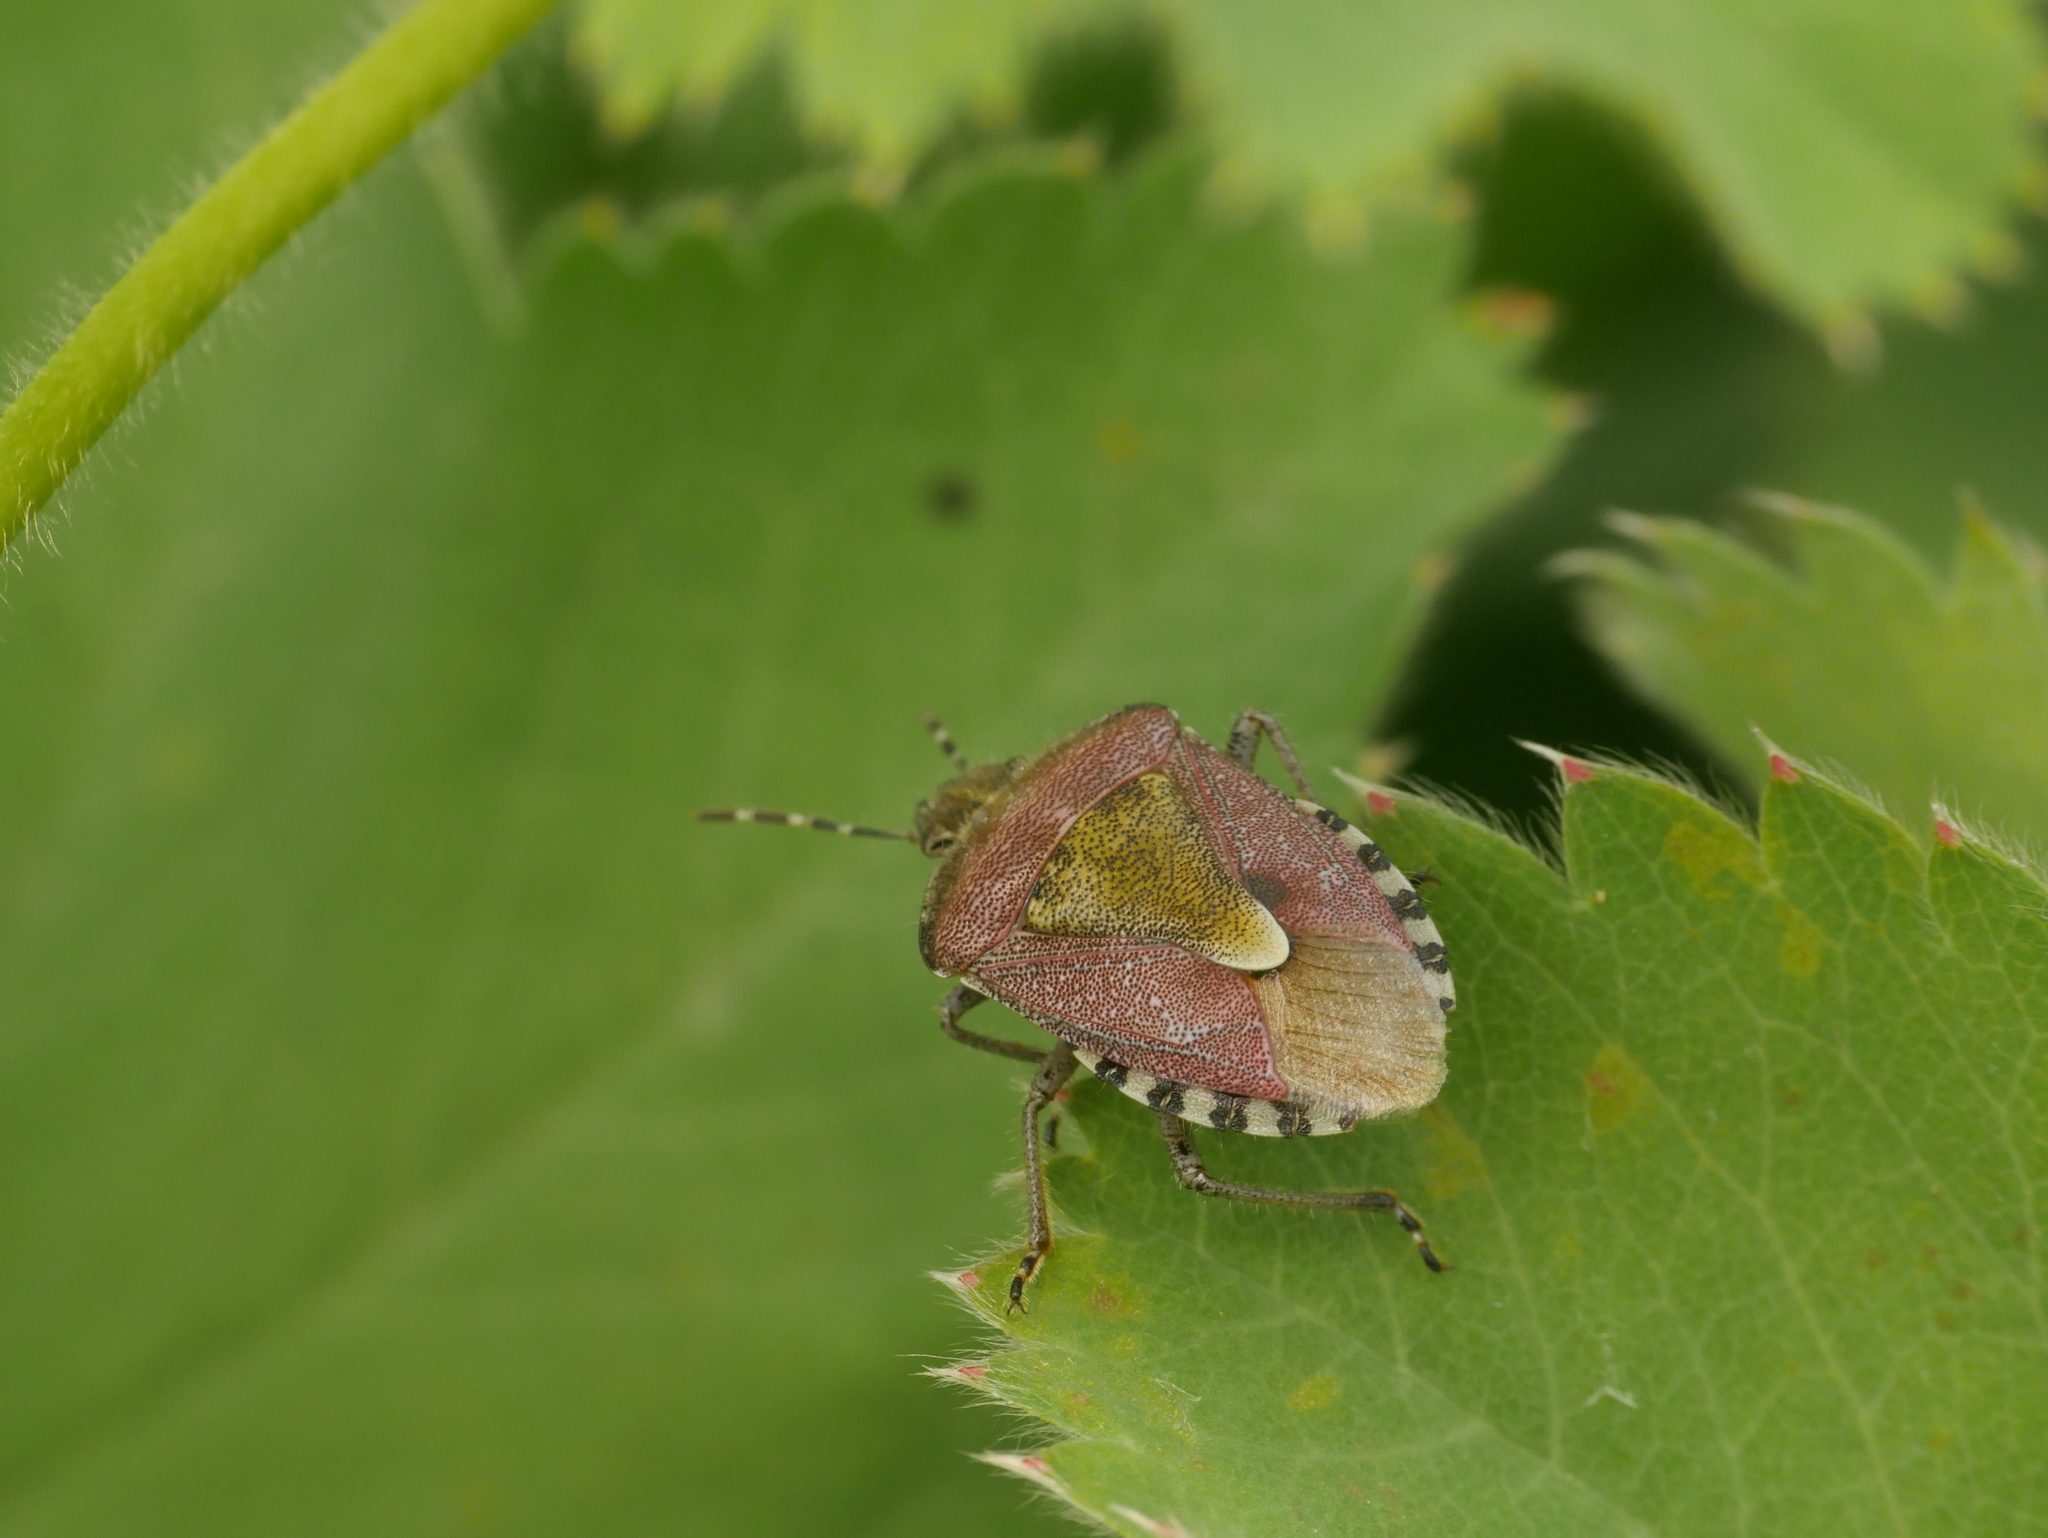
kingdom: Animalia
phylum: Arthropoda
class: Insecta
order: Hemiptera
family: Pentatomidae
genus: Dolycoris
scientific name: Dolycoris baccarum
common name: Sloe bug
